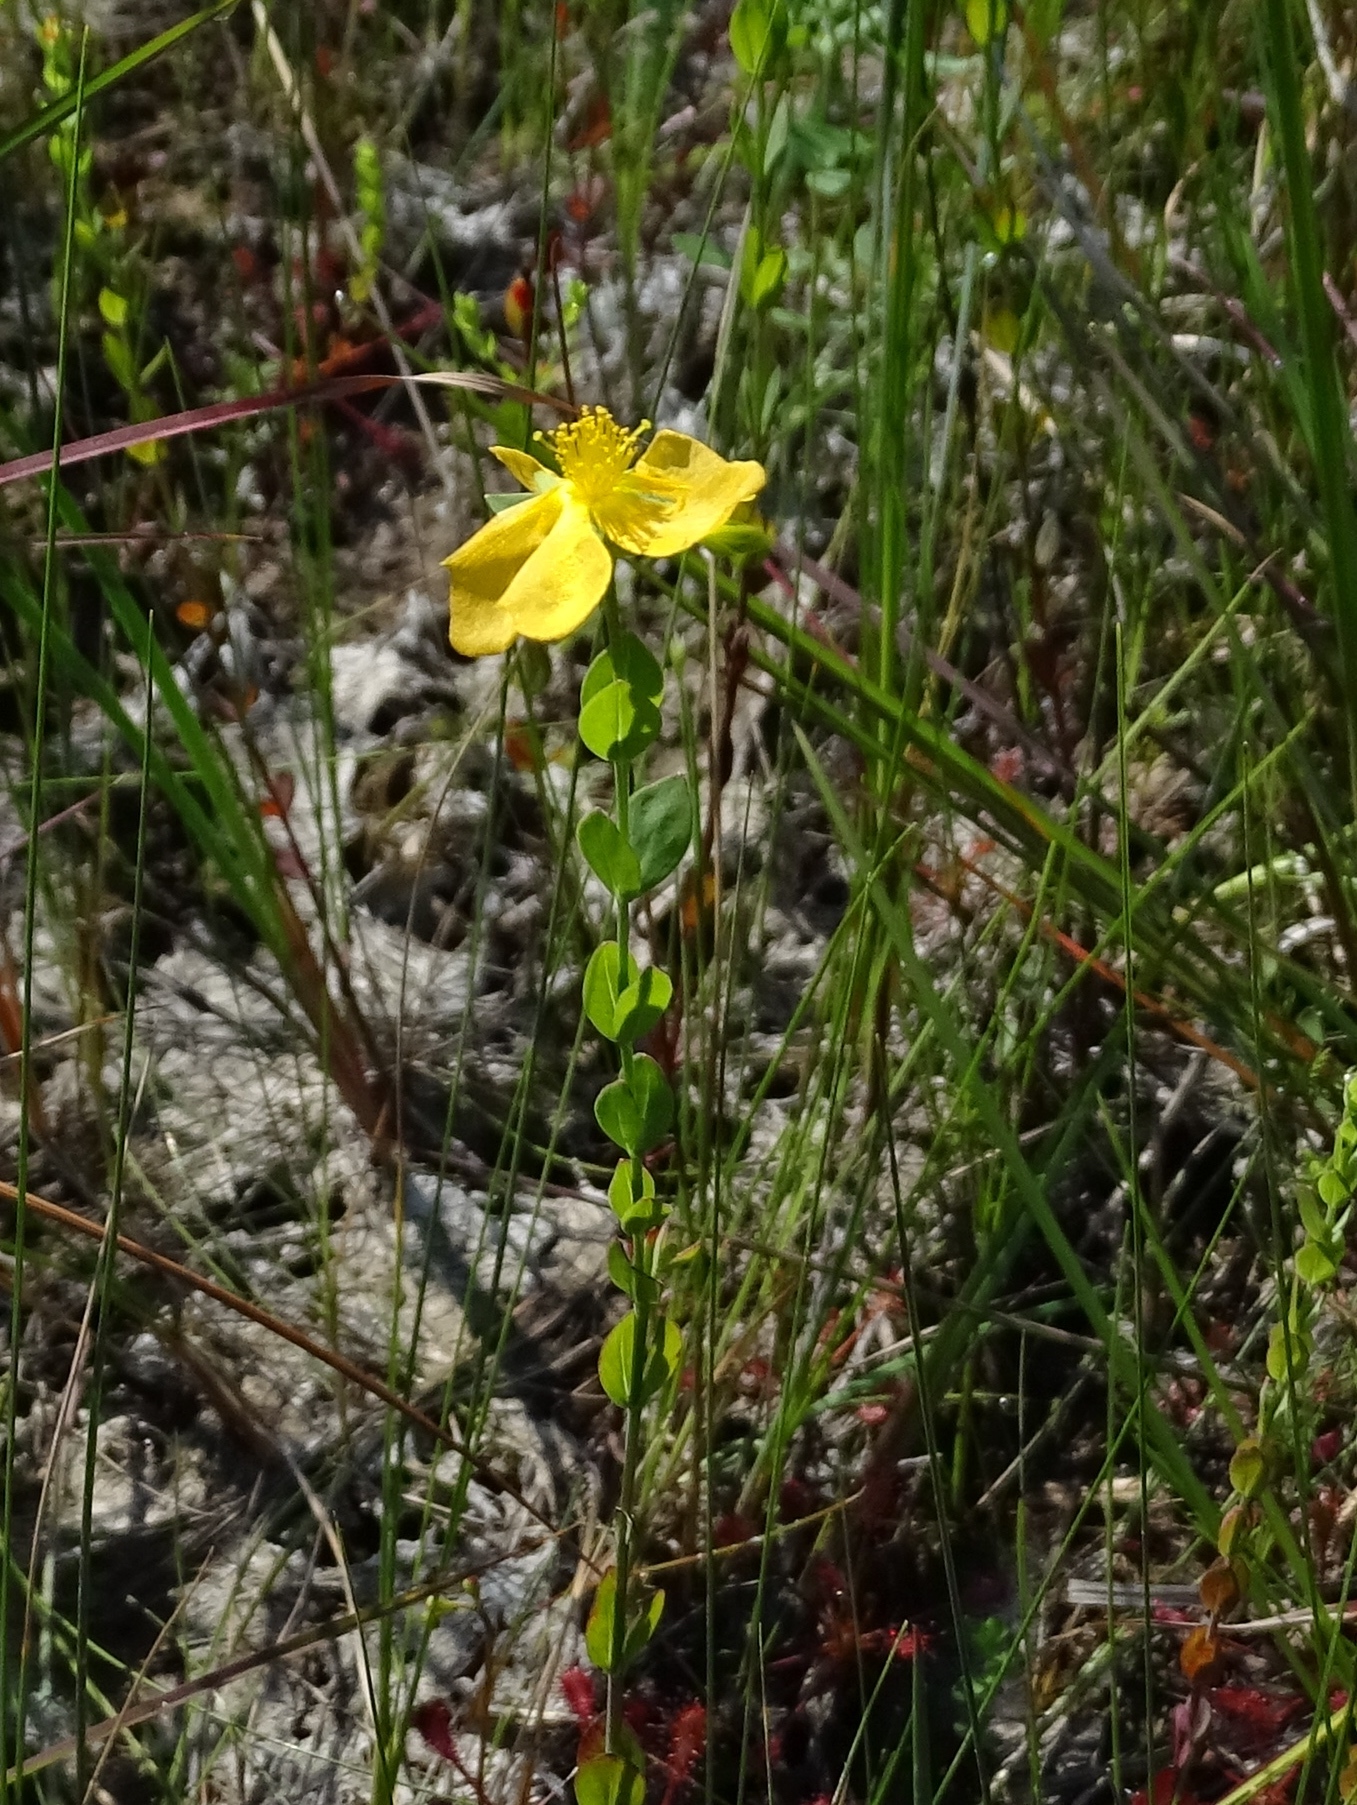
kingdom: Plantae
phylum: Tracheophyta
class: Magnoliopsida
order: Malpighiales
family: Hypericaceae
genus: Hypericum
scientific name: Hypericum denticulatum
